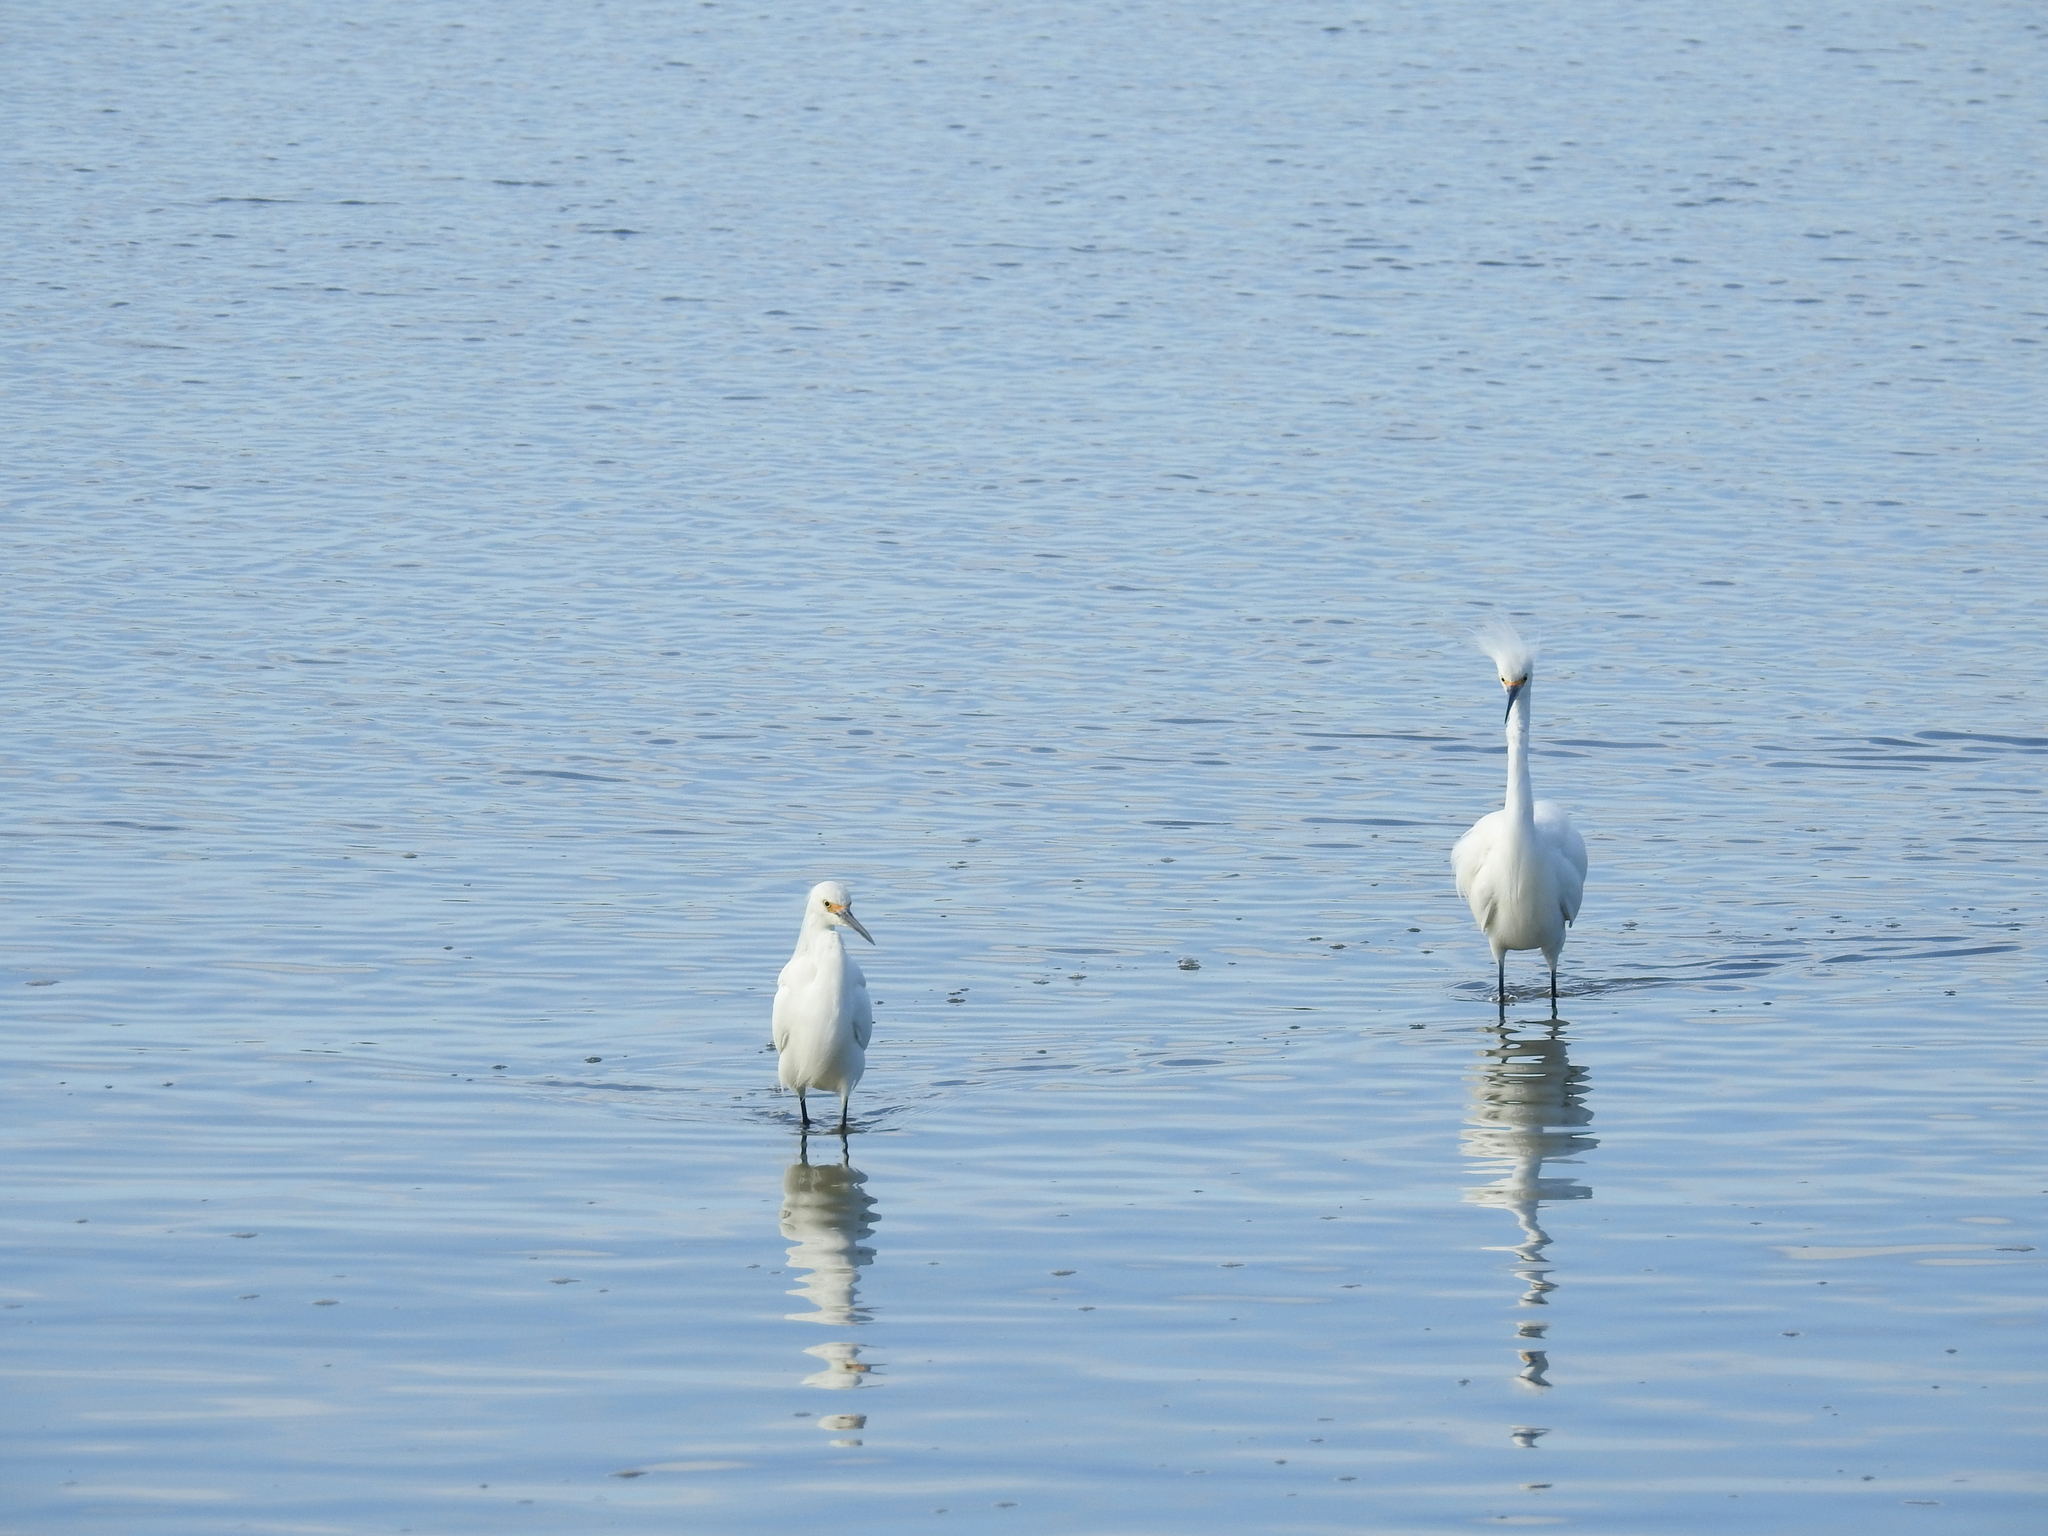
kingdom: Animalia
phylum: Chordata
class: Aves
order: Pelecaniformes
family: Ardeidae
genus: Egretta
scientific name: Egretta thula
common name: Snowy egret
